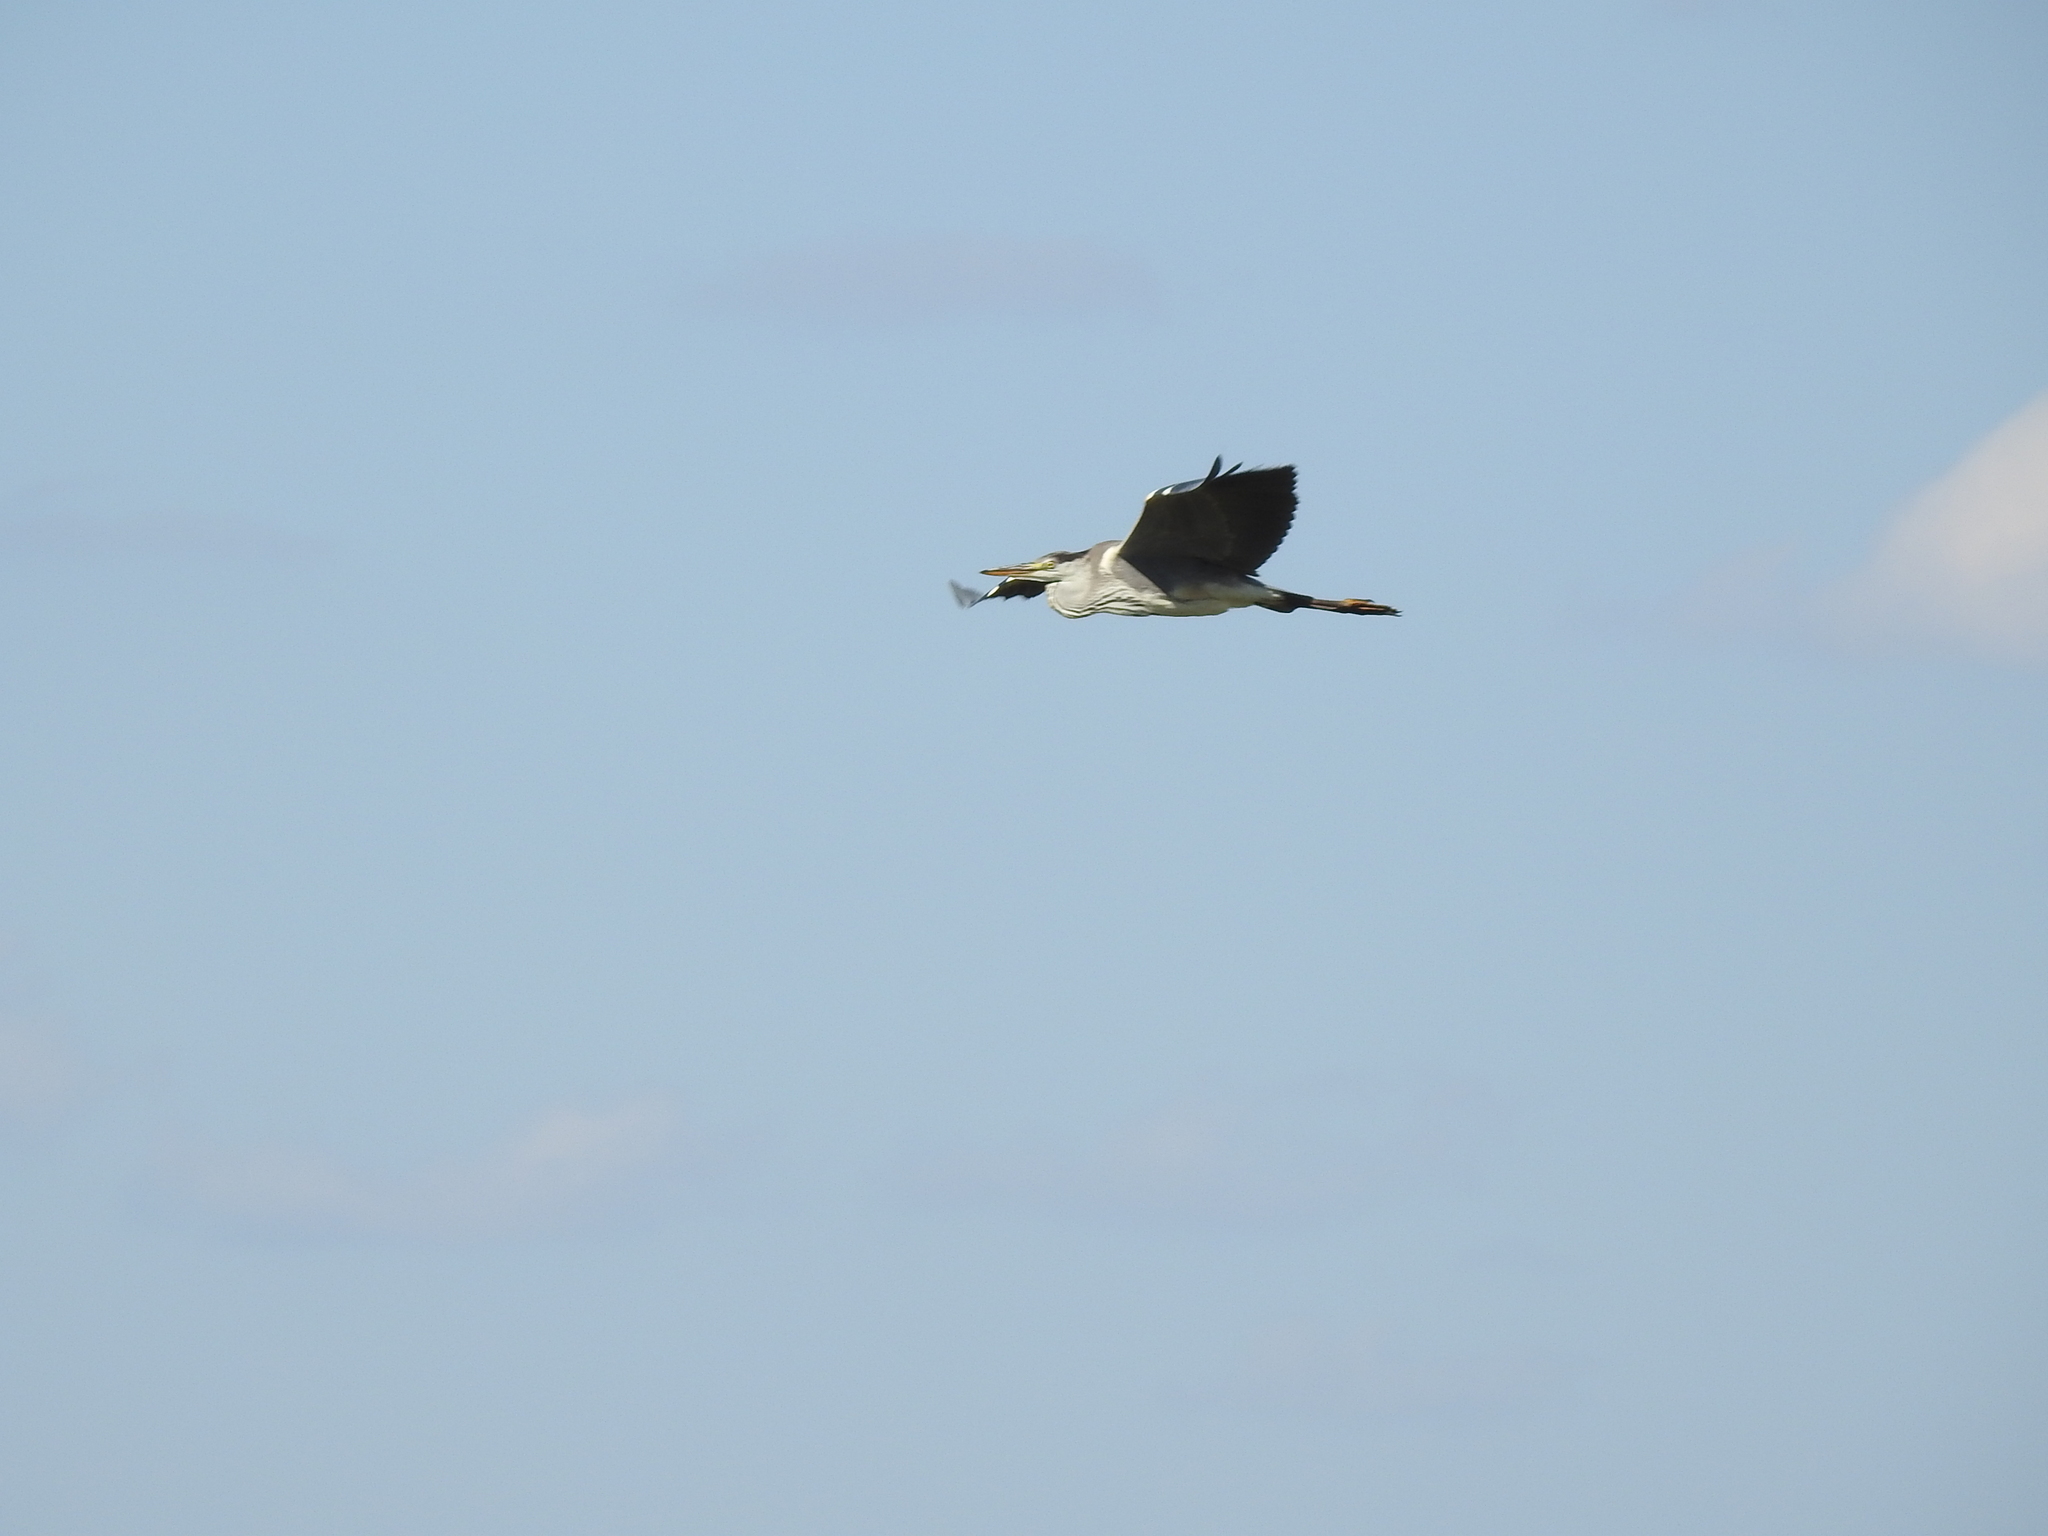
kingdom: Animalia
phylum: Chordata
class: Aves
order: Pelecaniformes
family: Ardeidae
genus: Ardea
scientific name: Ardea cinerea
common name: Grey heron
